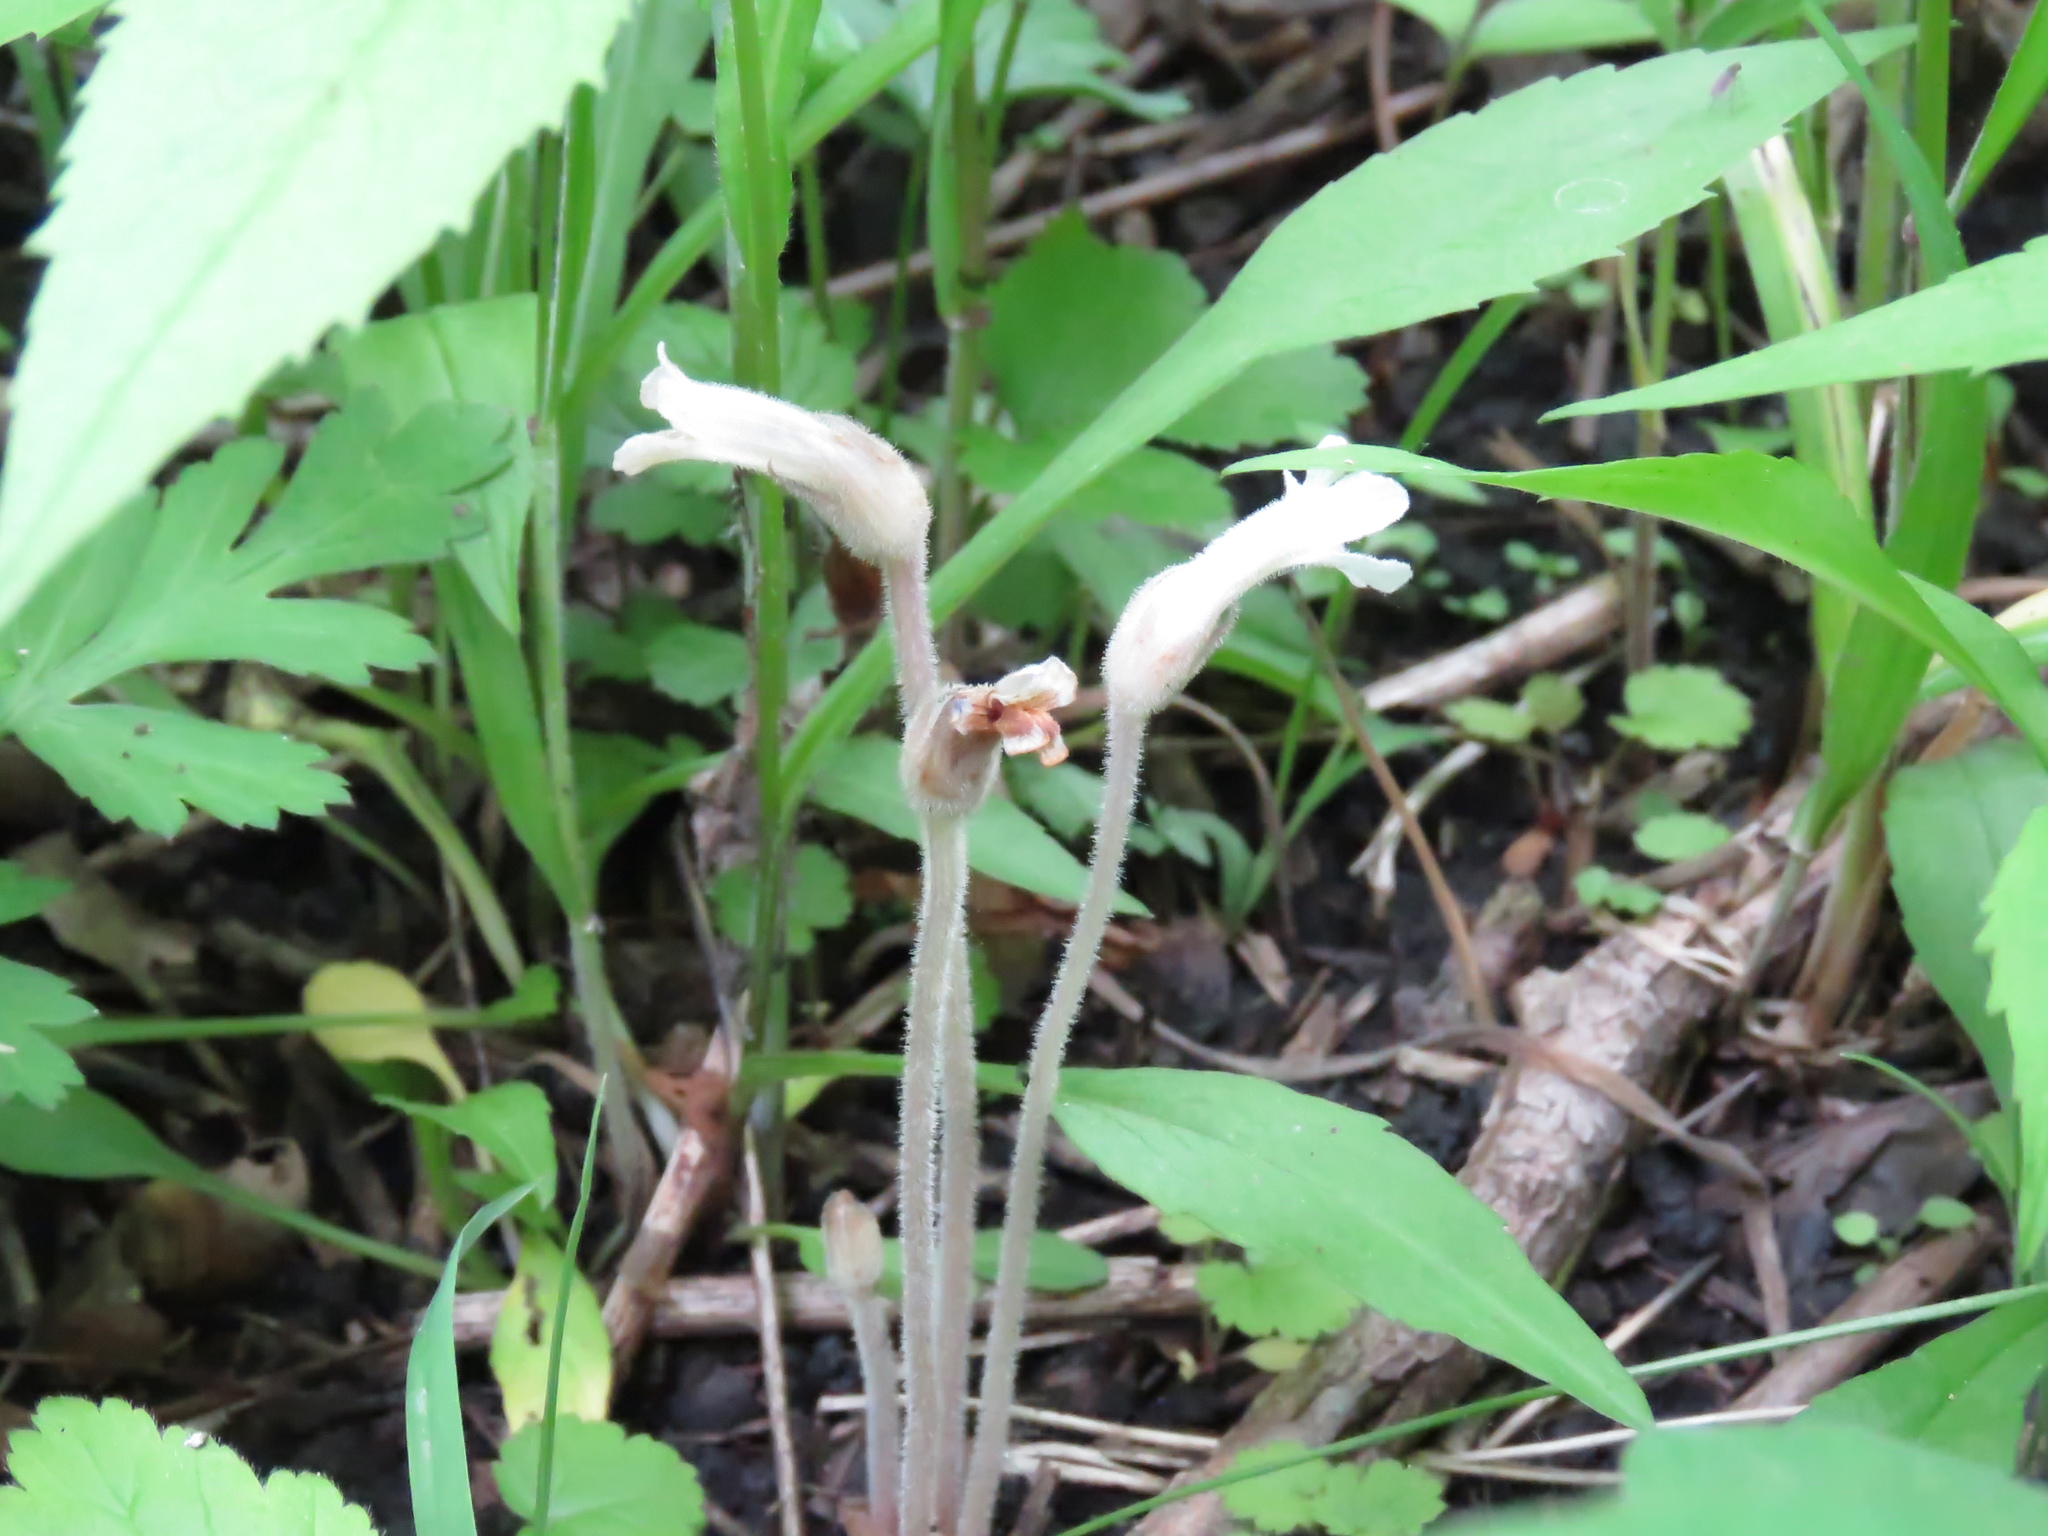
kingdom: Plantae
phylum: Tracheophyta
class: Magnoliopsida
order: Lamiales
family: Orobanchaceae
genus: Aphyllon
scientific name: Aphyllon uniflorum
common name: One-flowered broomrape
